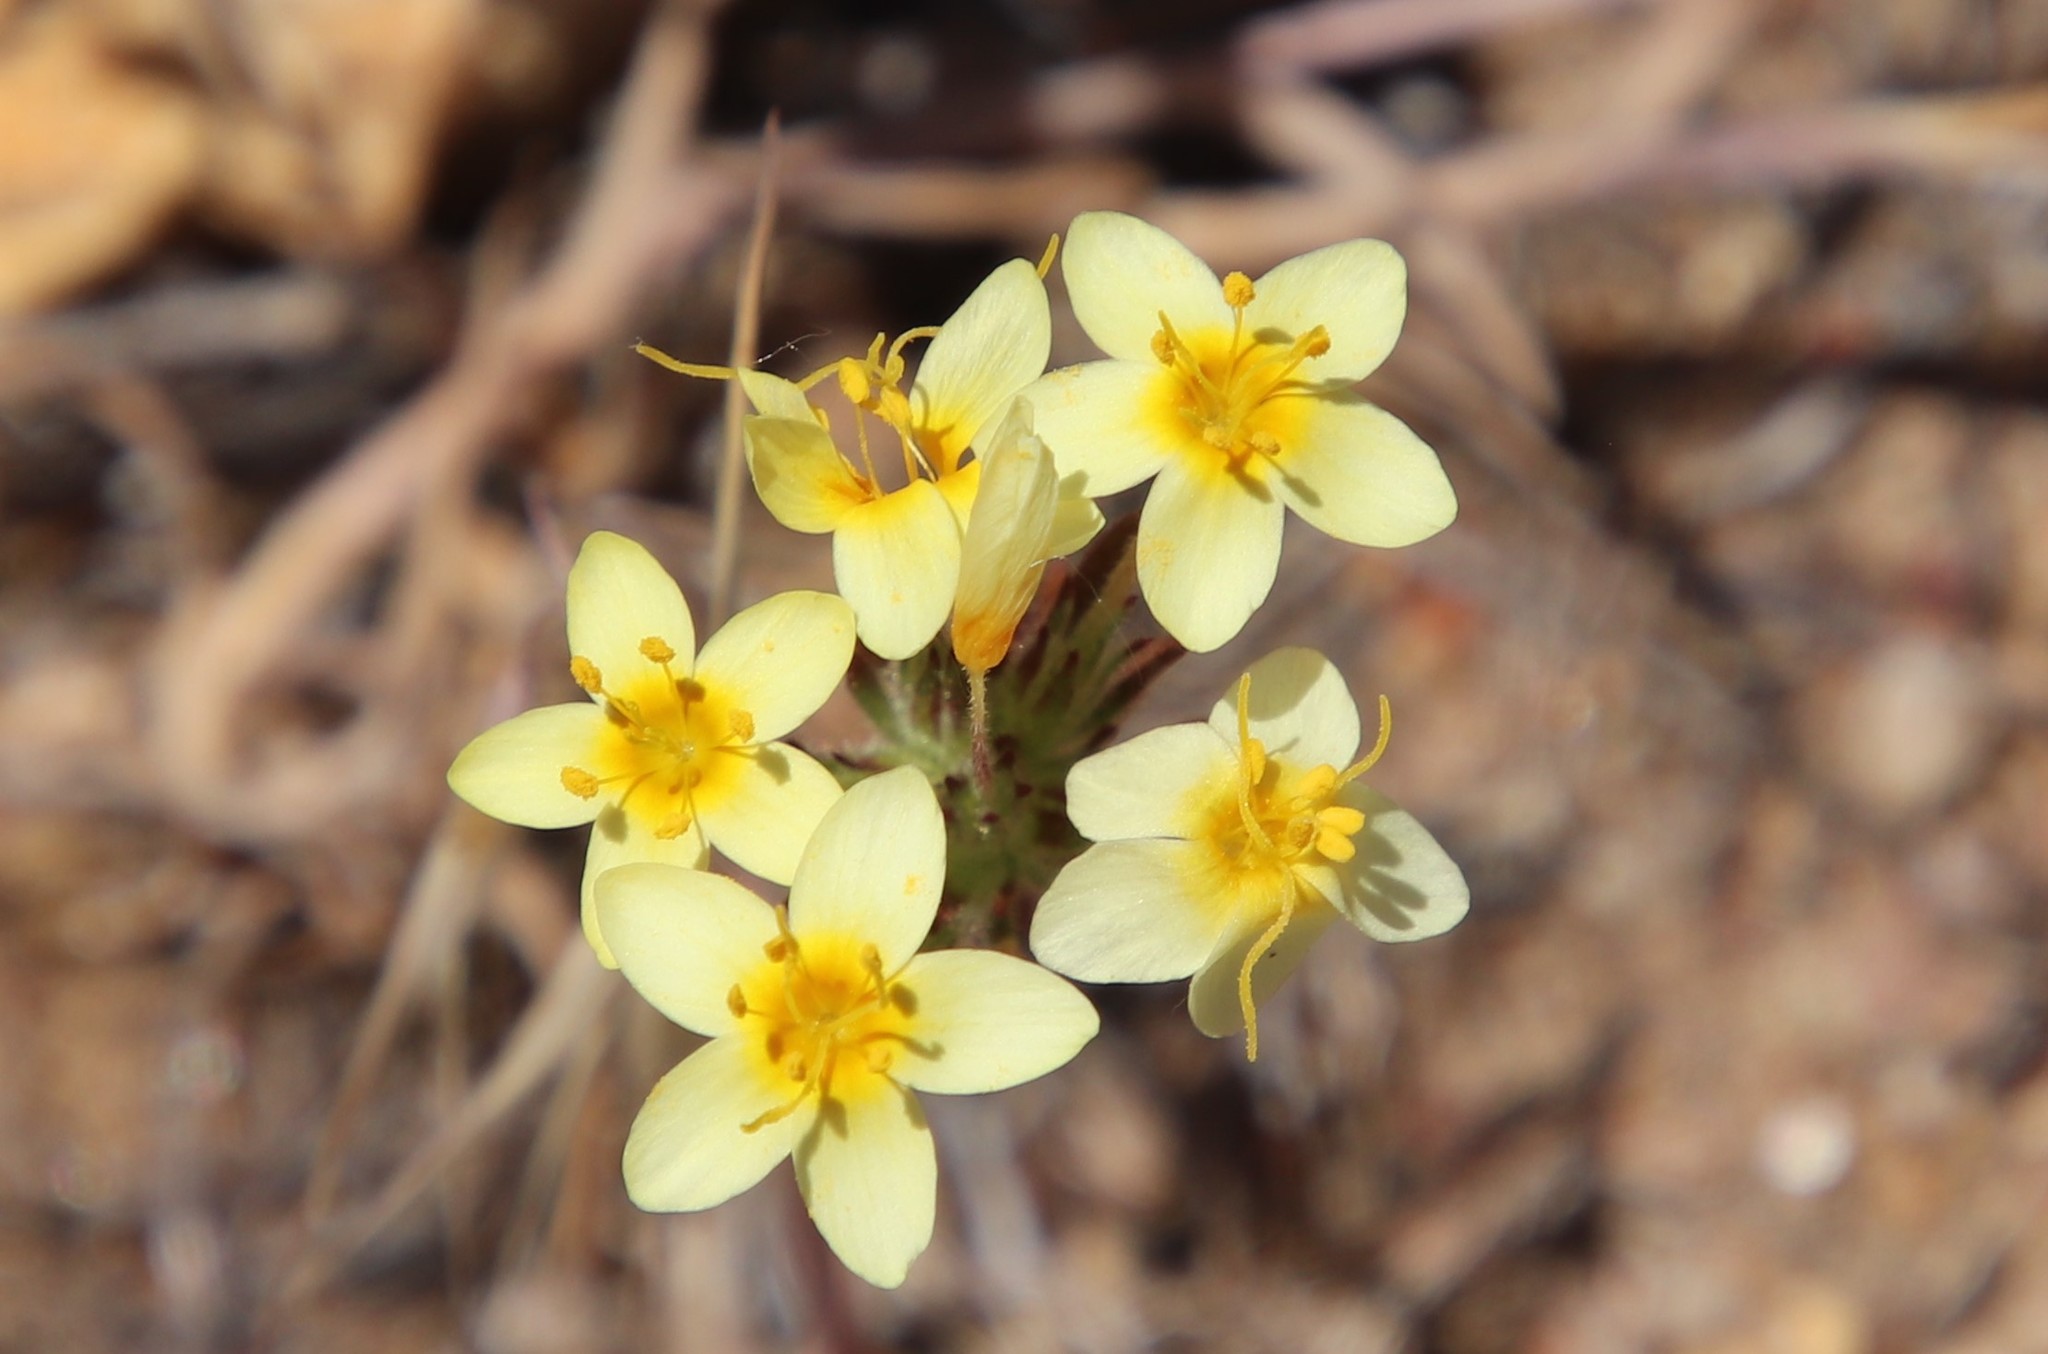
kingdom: Plantae
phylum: Tracheophyta
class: Magnoliopsida
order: Ericales
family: Polemoniaceae
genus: Leptosiphon
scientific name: Leptosiphon parviflorus
